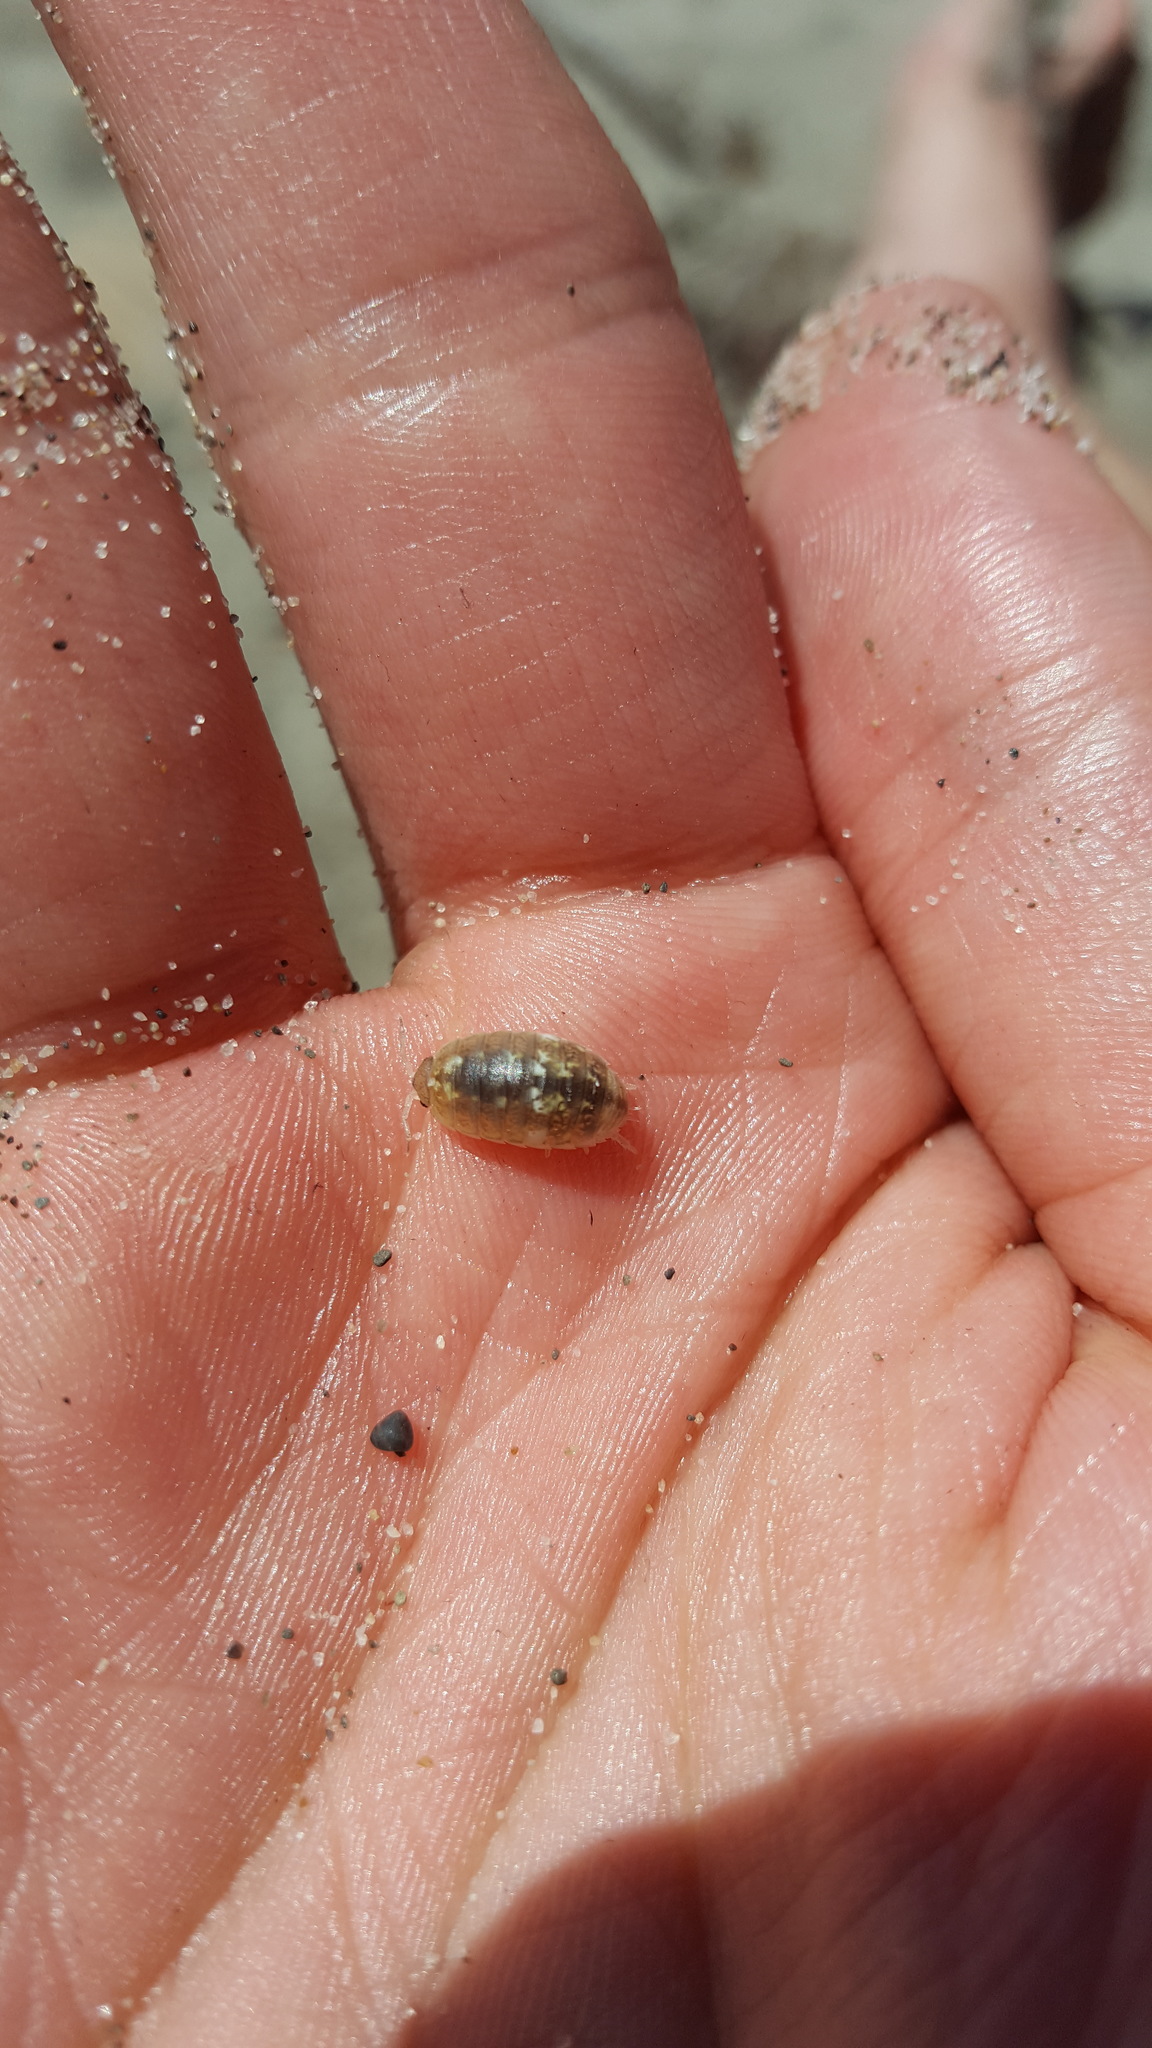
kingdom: Animalia
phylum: Arthropoda
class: Malacostraca
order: Isopoda
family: Alloniscidae
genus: Alloniscus
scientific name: Alloniscus perconvexus
